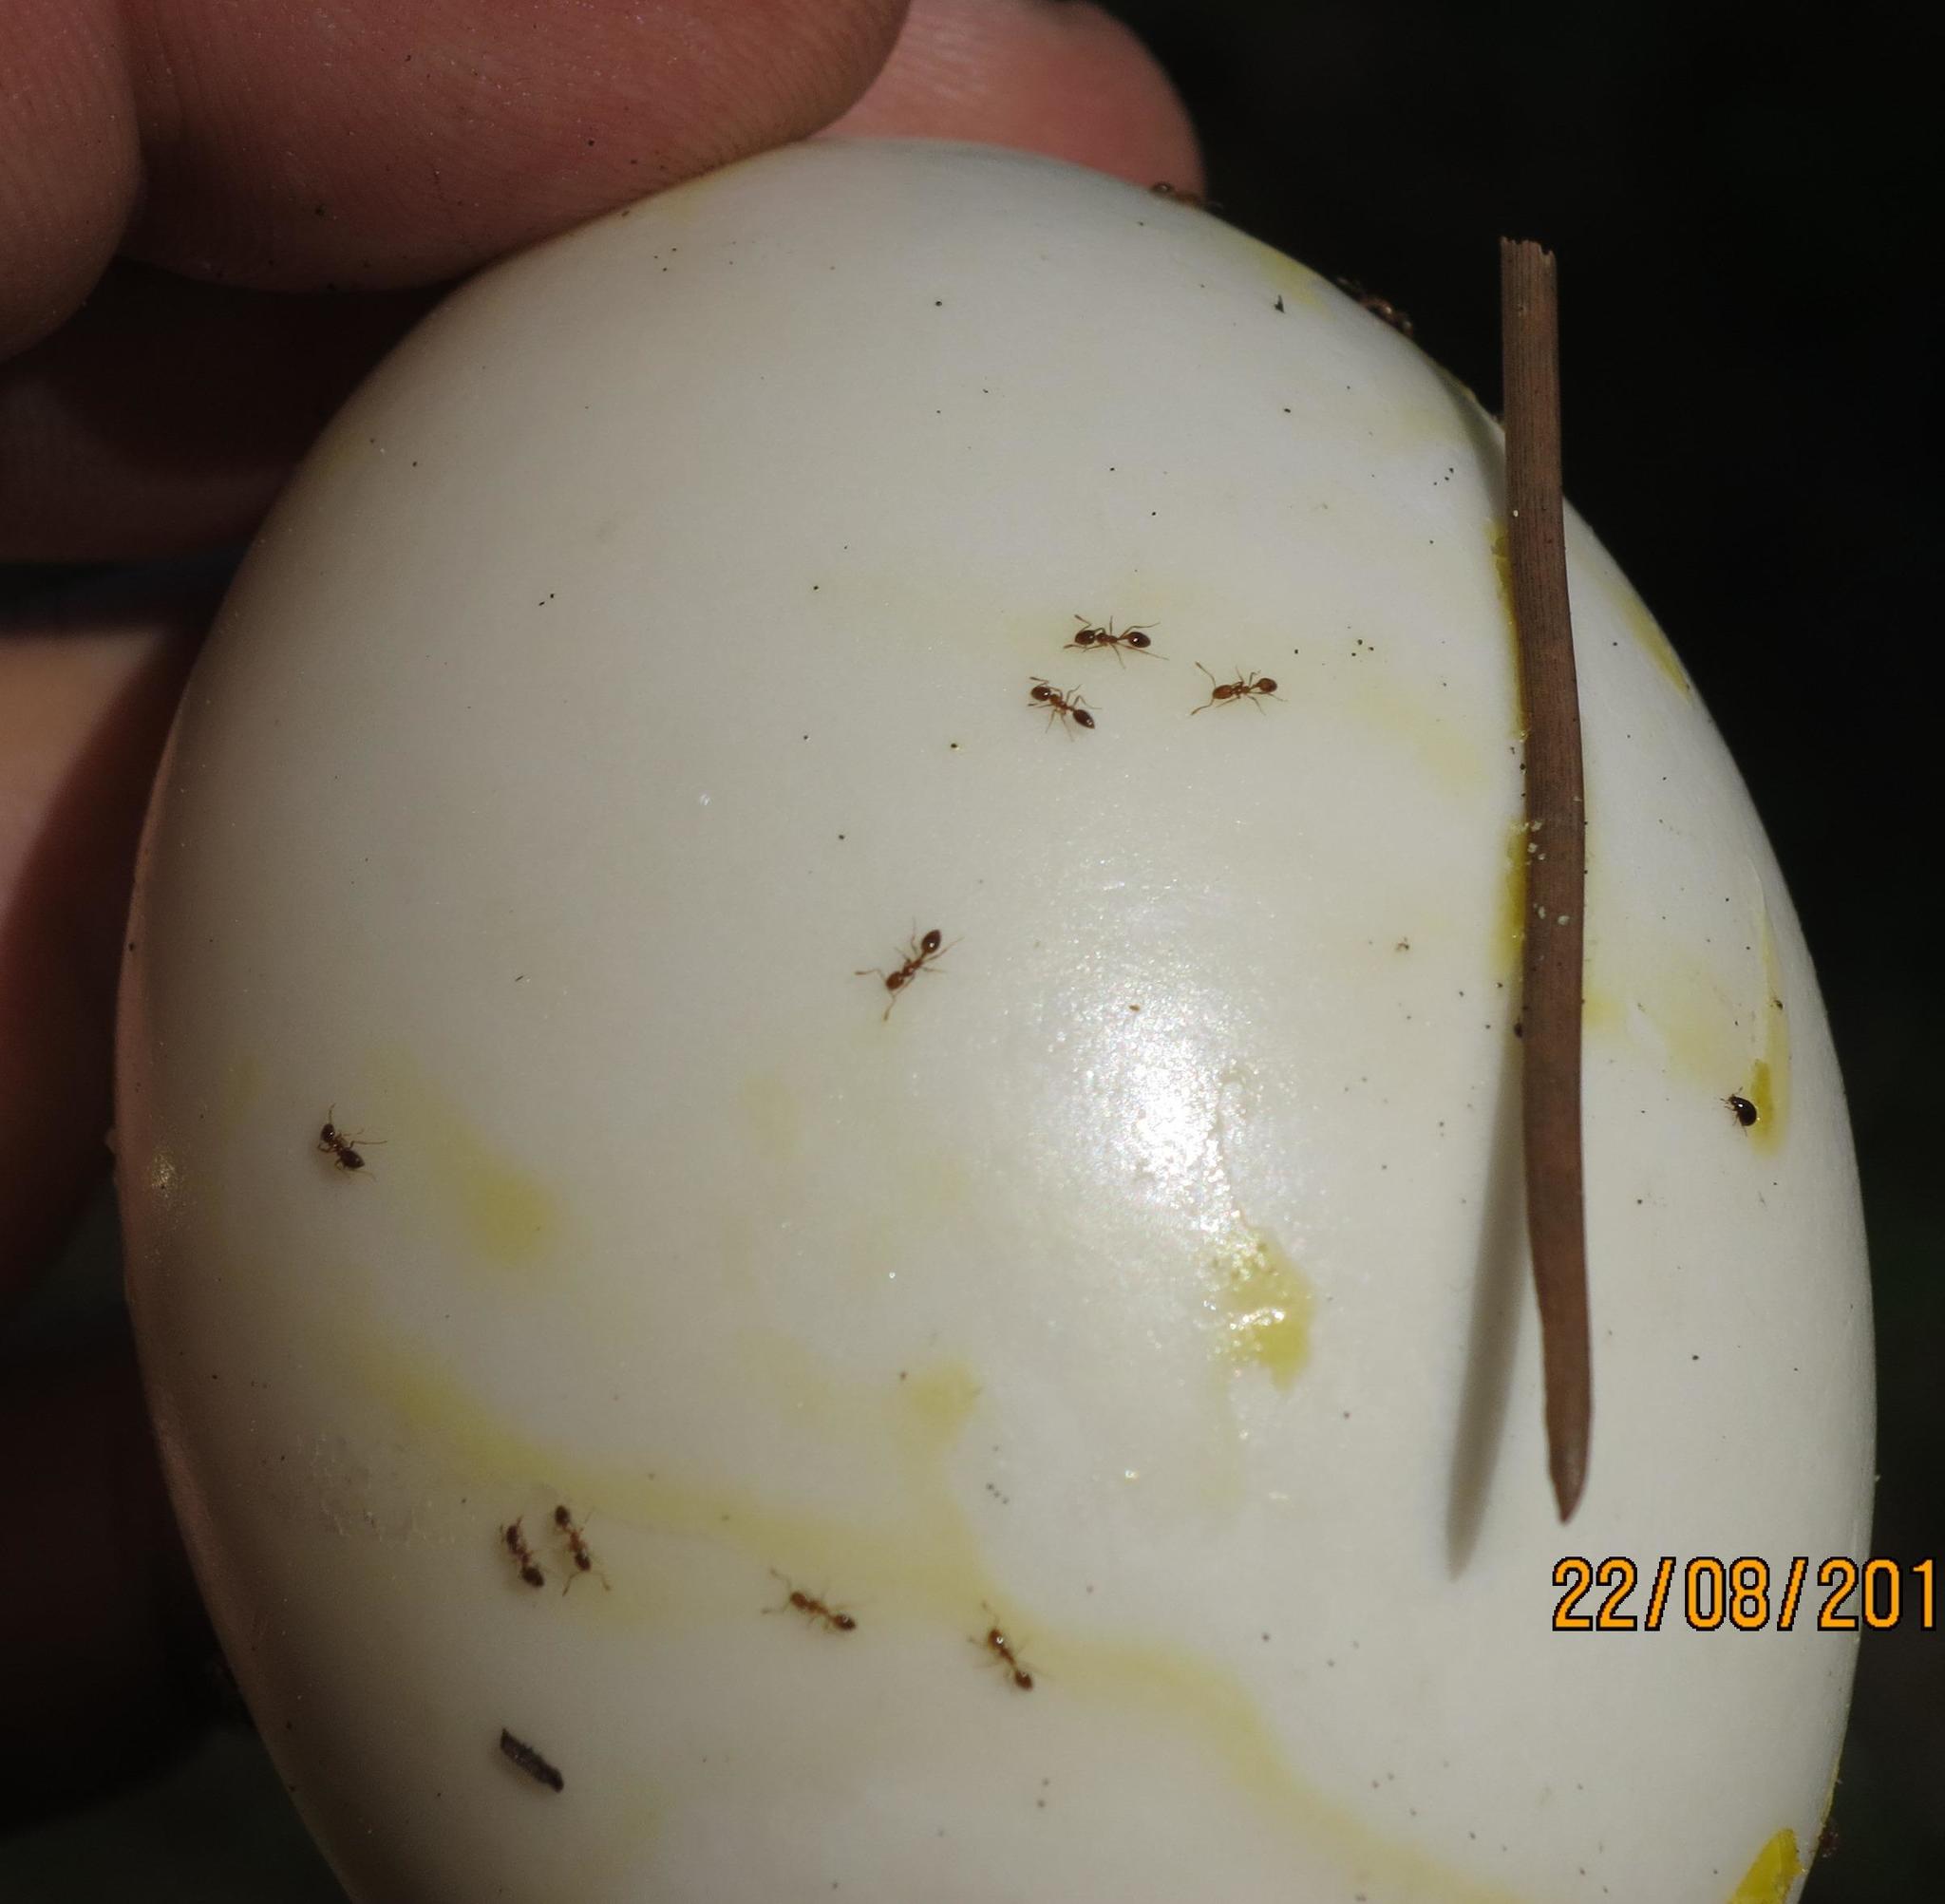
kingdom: Animalia
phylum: Arthropoda
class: Insecta
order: Hymenoptera
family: Formicidae
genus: Pheidole
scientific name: Pheidole megacephala
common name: Bigheaded ant
